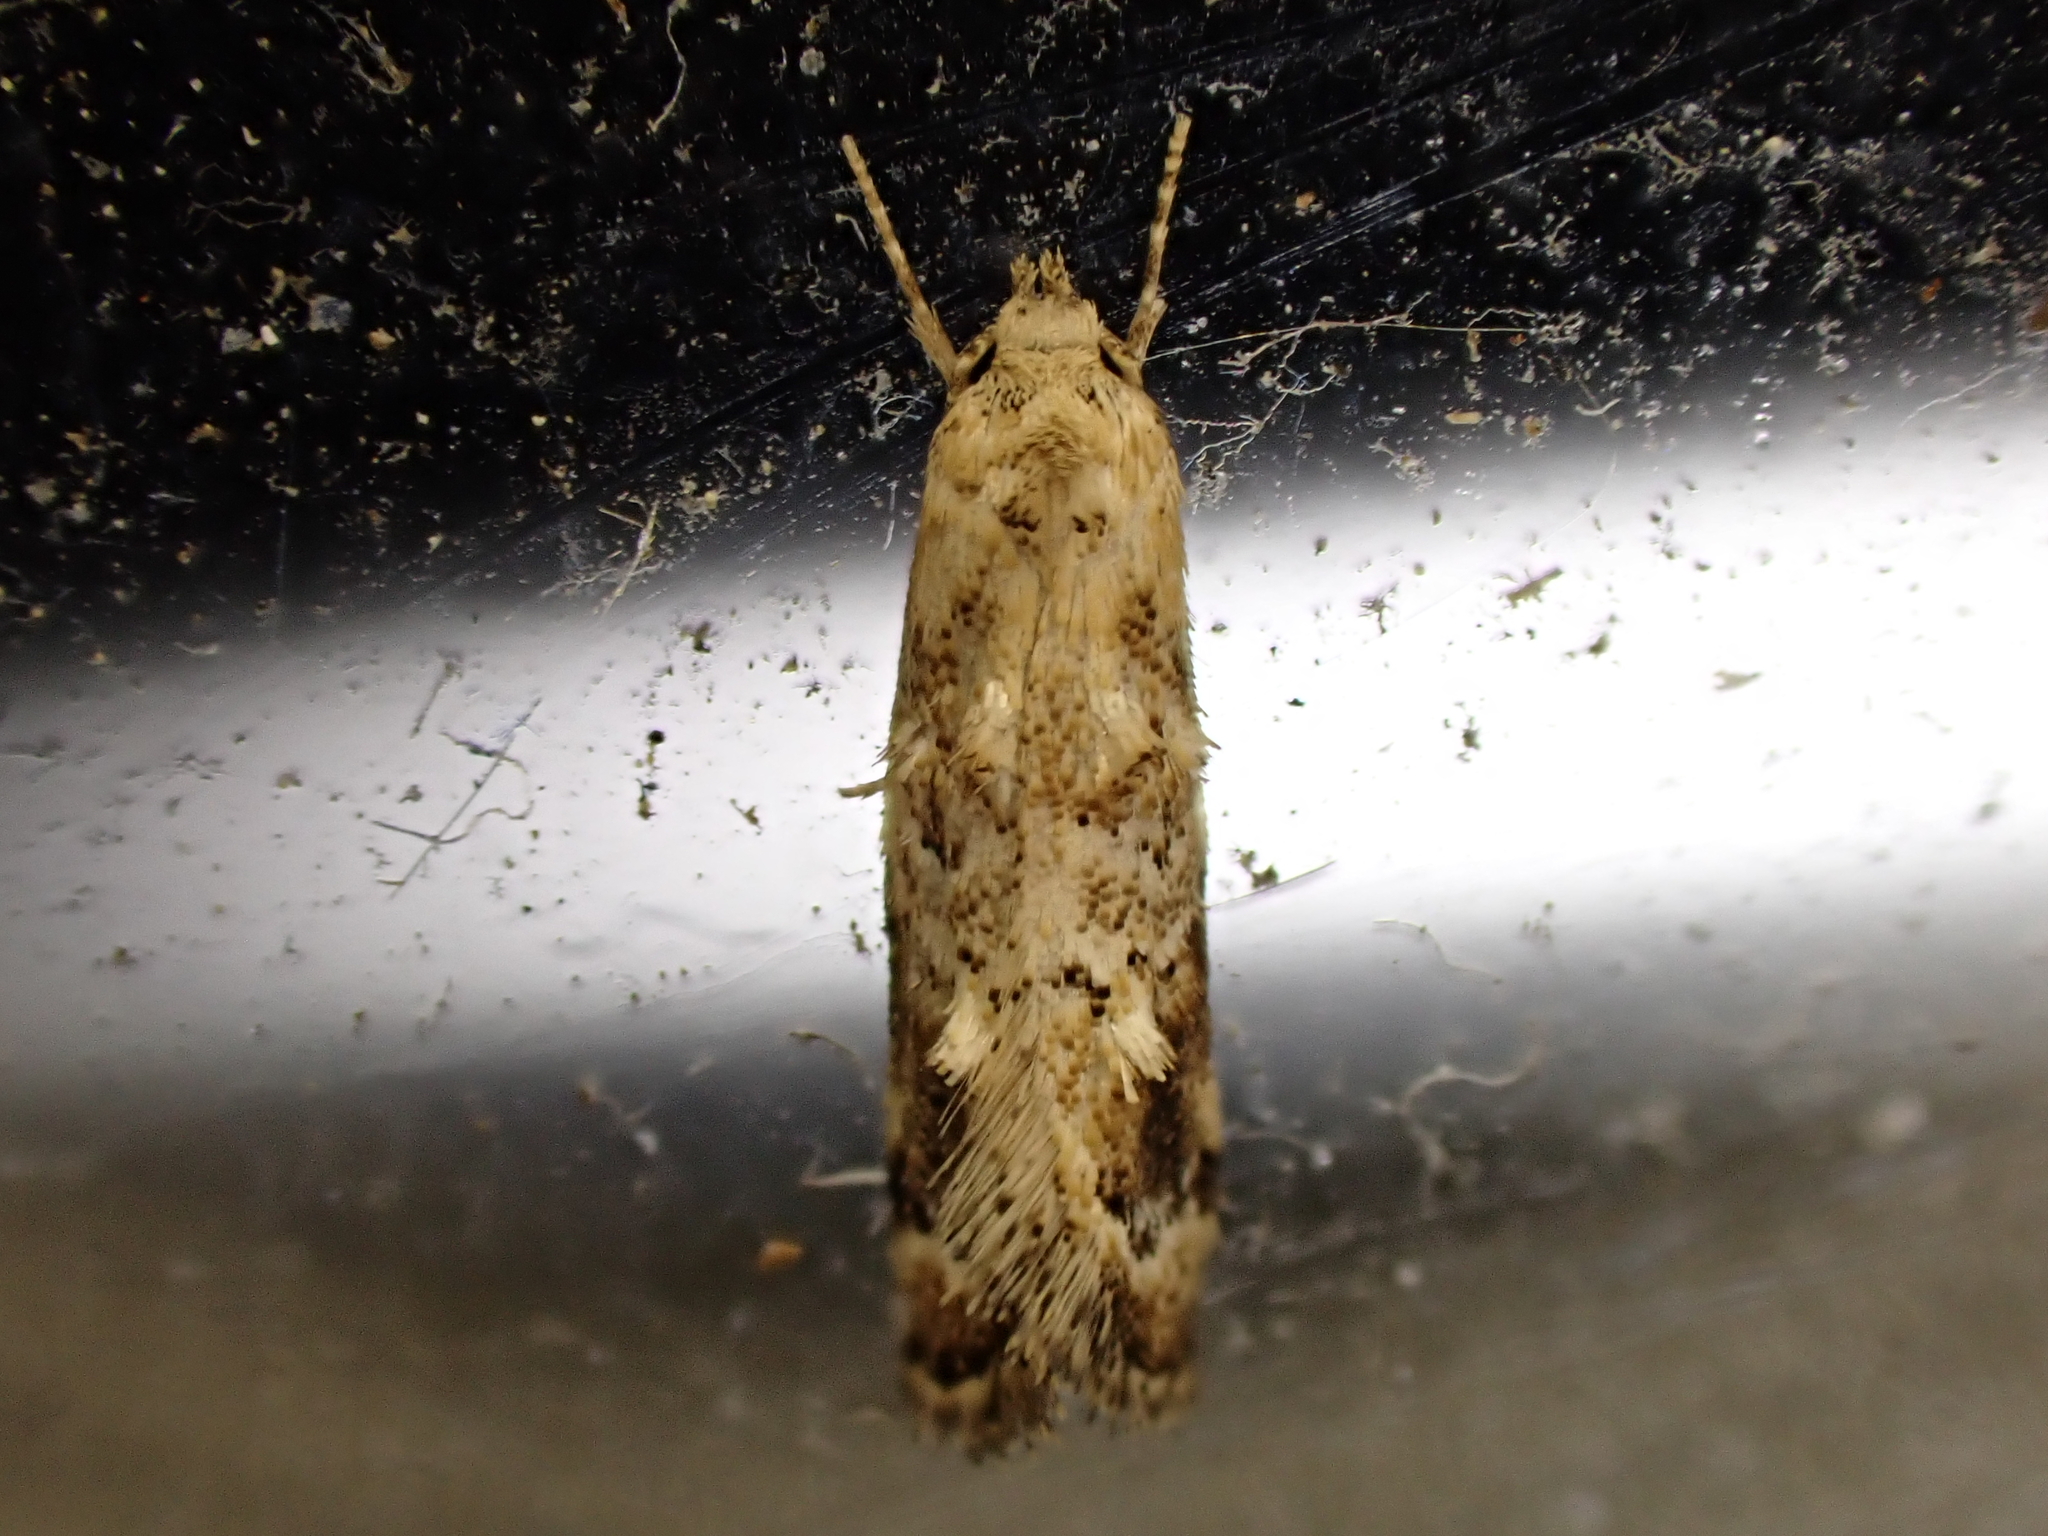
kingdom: Animalia
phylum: Arthropoda
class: Insecta
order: Lepidoptera
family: Oecophoridae
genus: Trachypepla
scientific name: Trachypepla aspidephora
